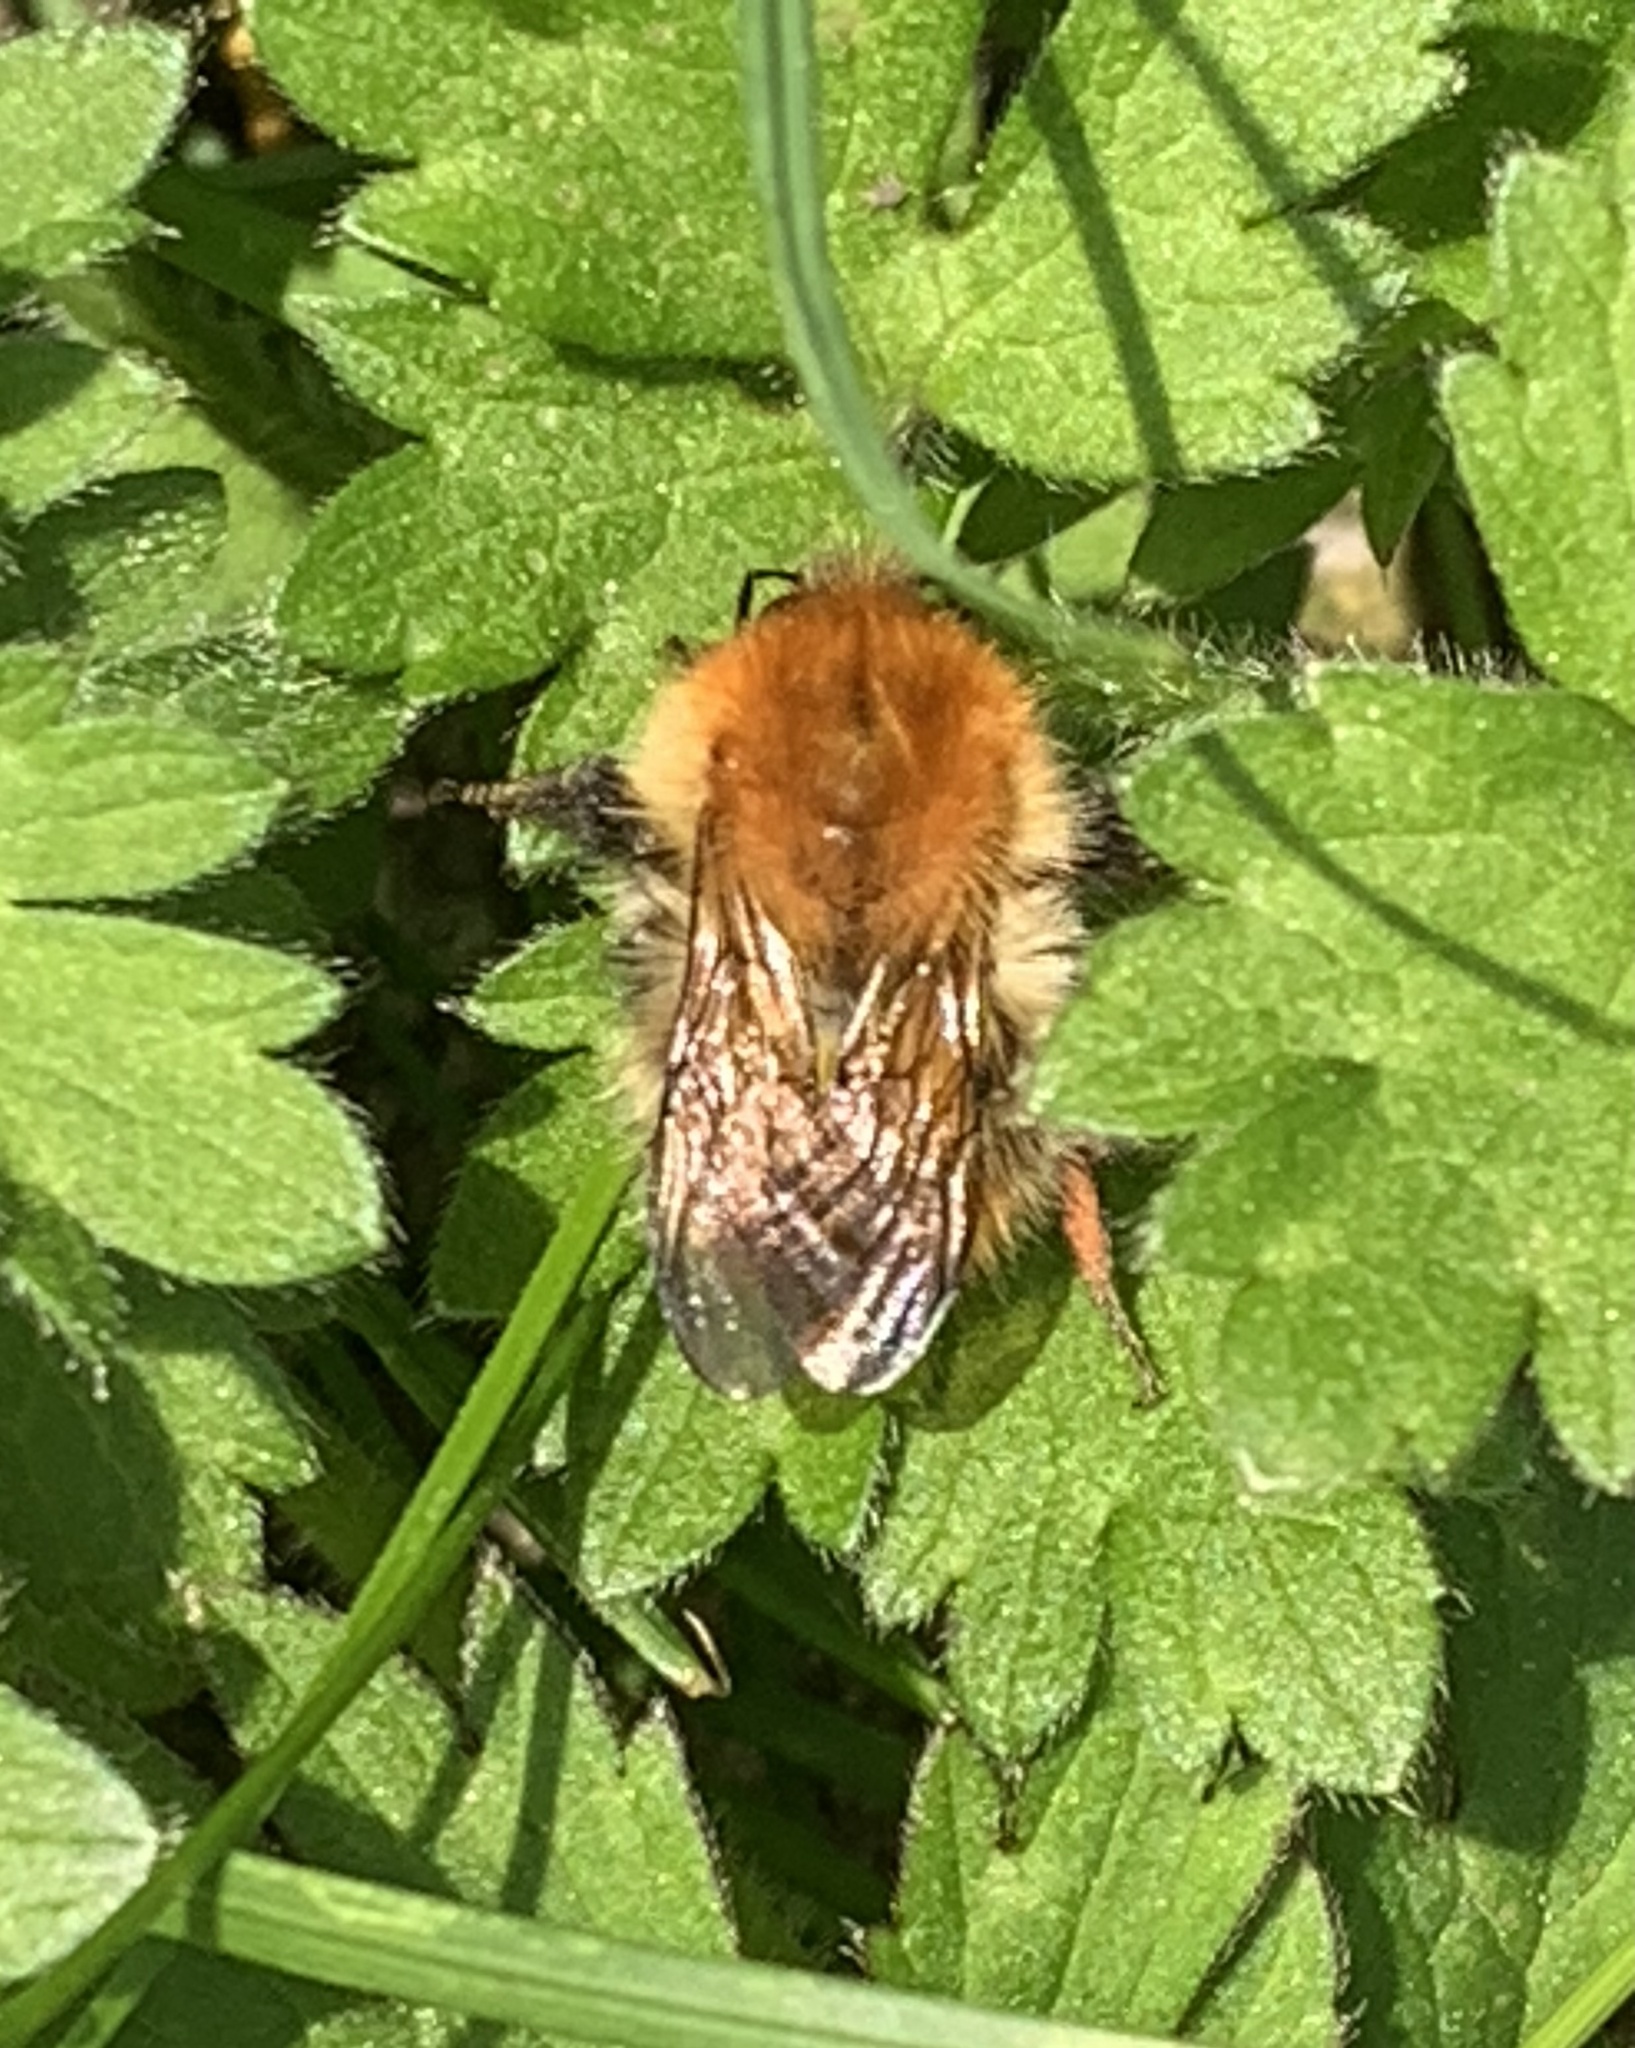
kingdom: Animalia
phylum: Arthropoda
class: Insecta
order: Hymenoptera
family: Apidae
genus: Bombus
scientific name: Bombus pascuorum
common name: Common carder bee
